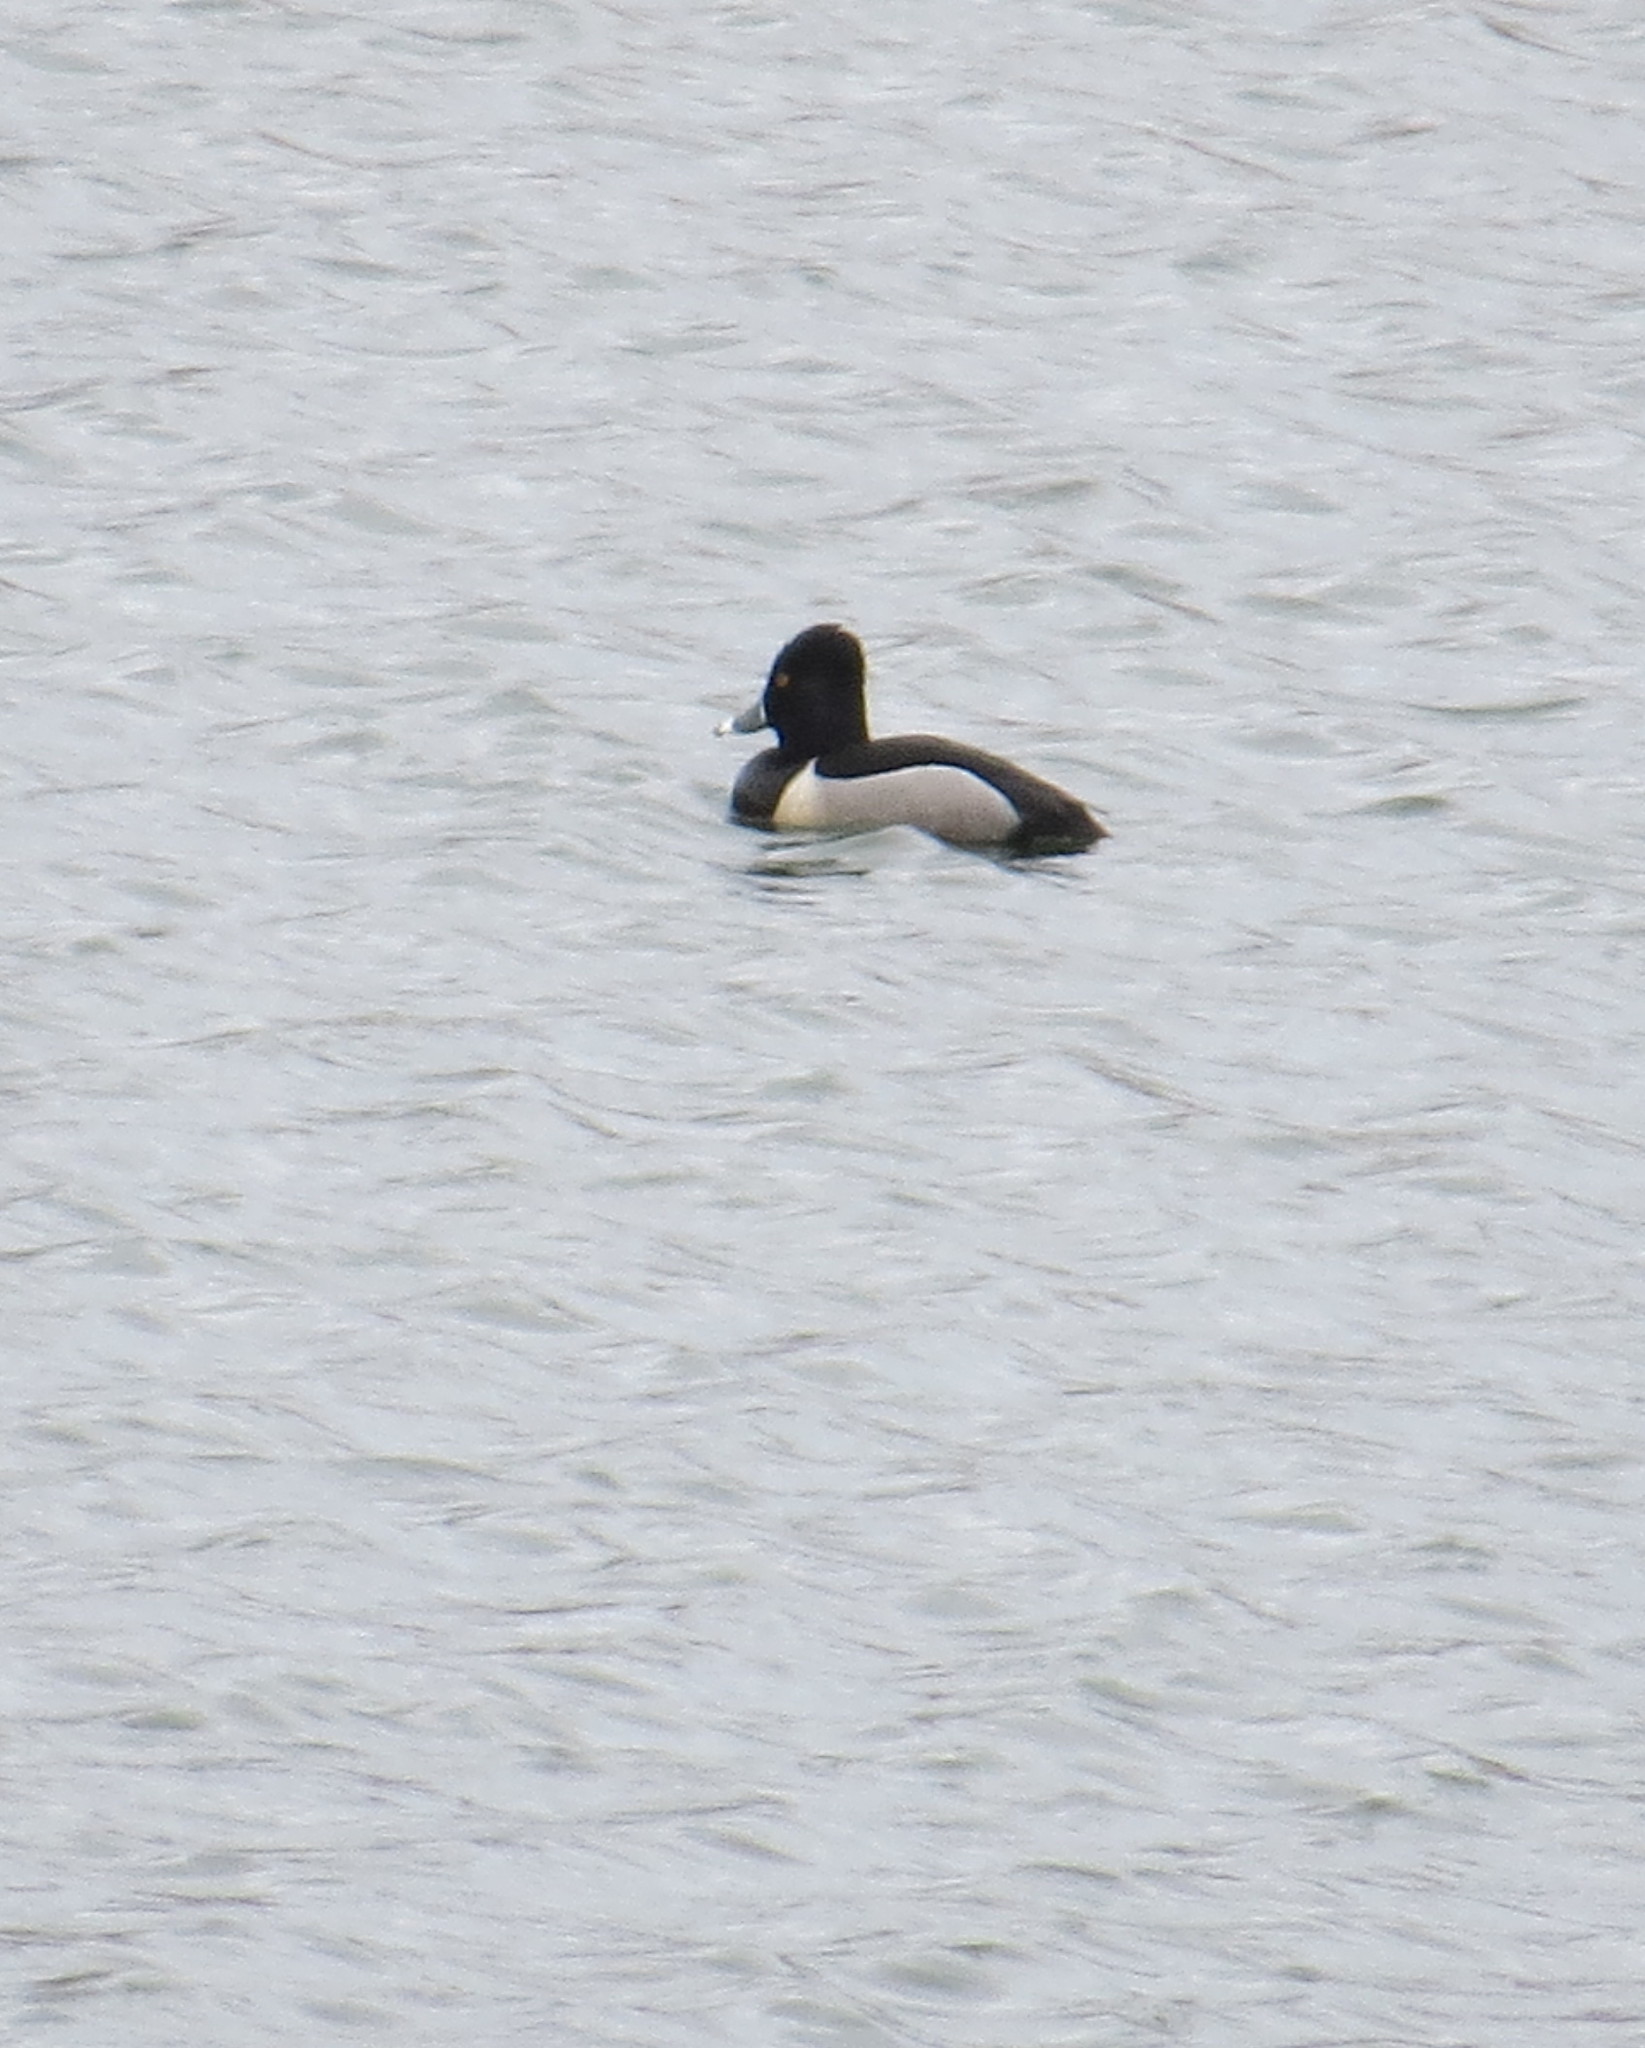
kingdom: Animalia
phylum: Chordata
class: Aves
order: Anseriformes
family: Anatidae
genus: Aythya
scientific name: Aythya collaris
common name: Ring-necked duck
